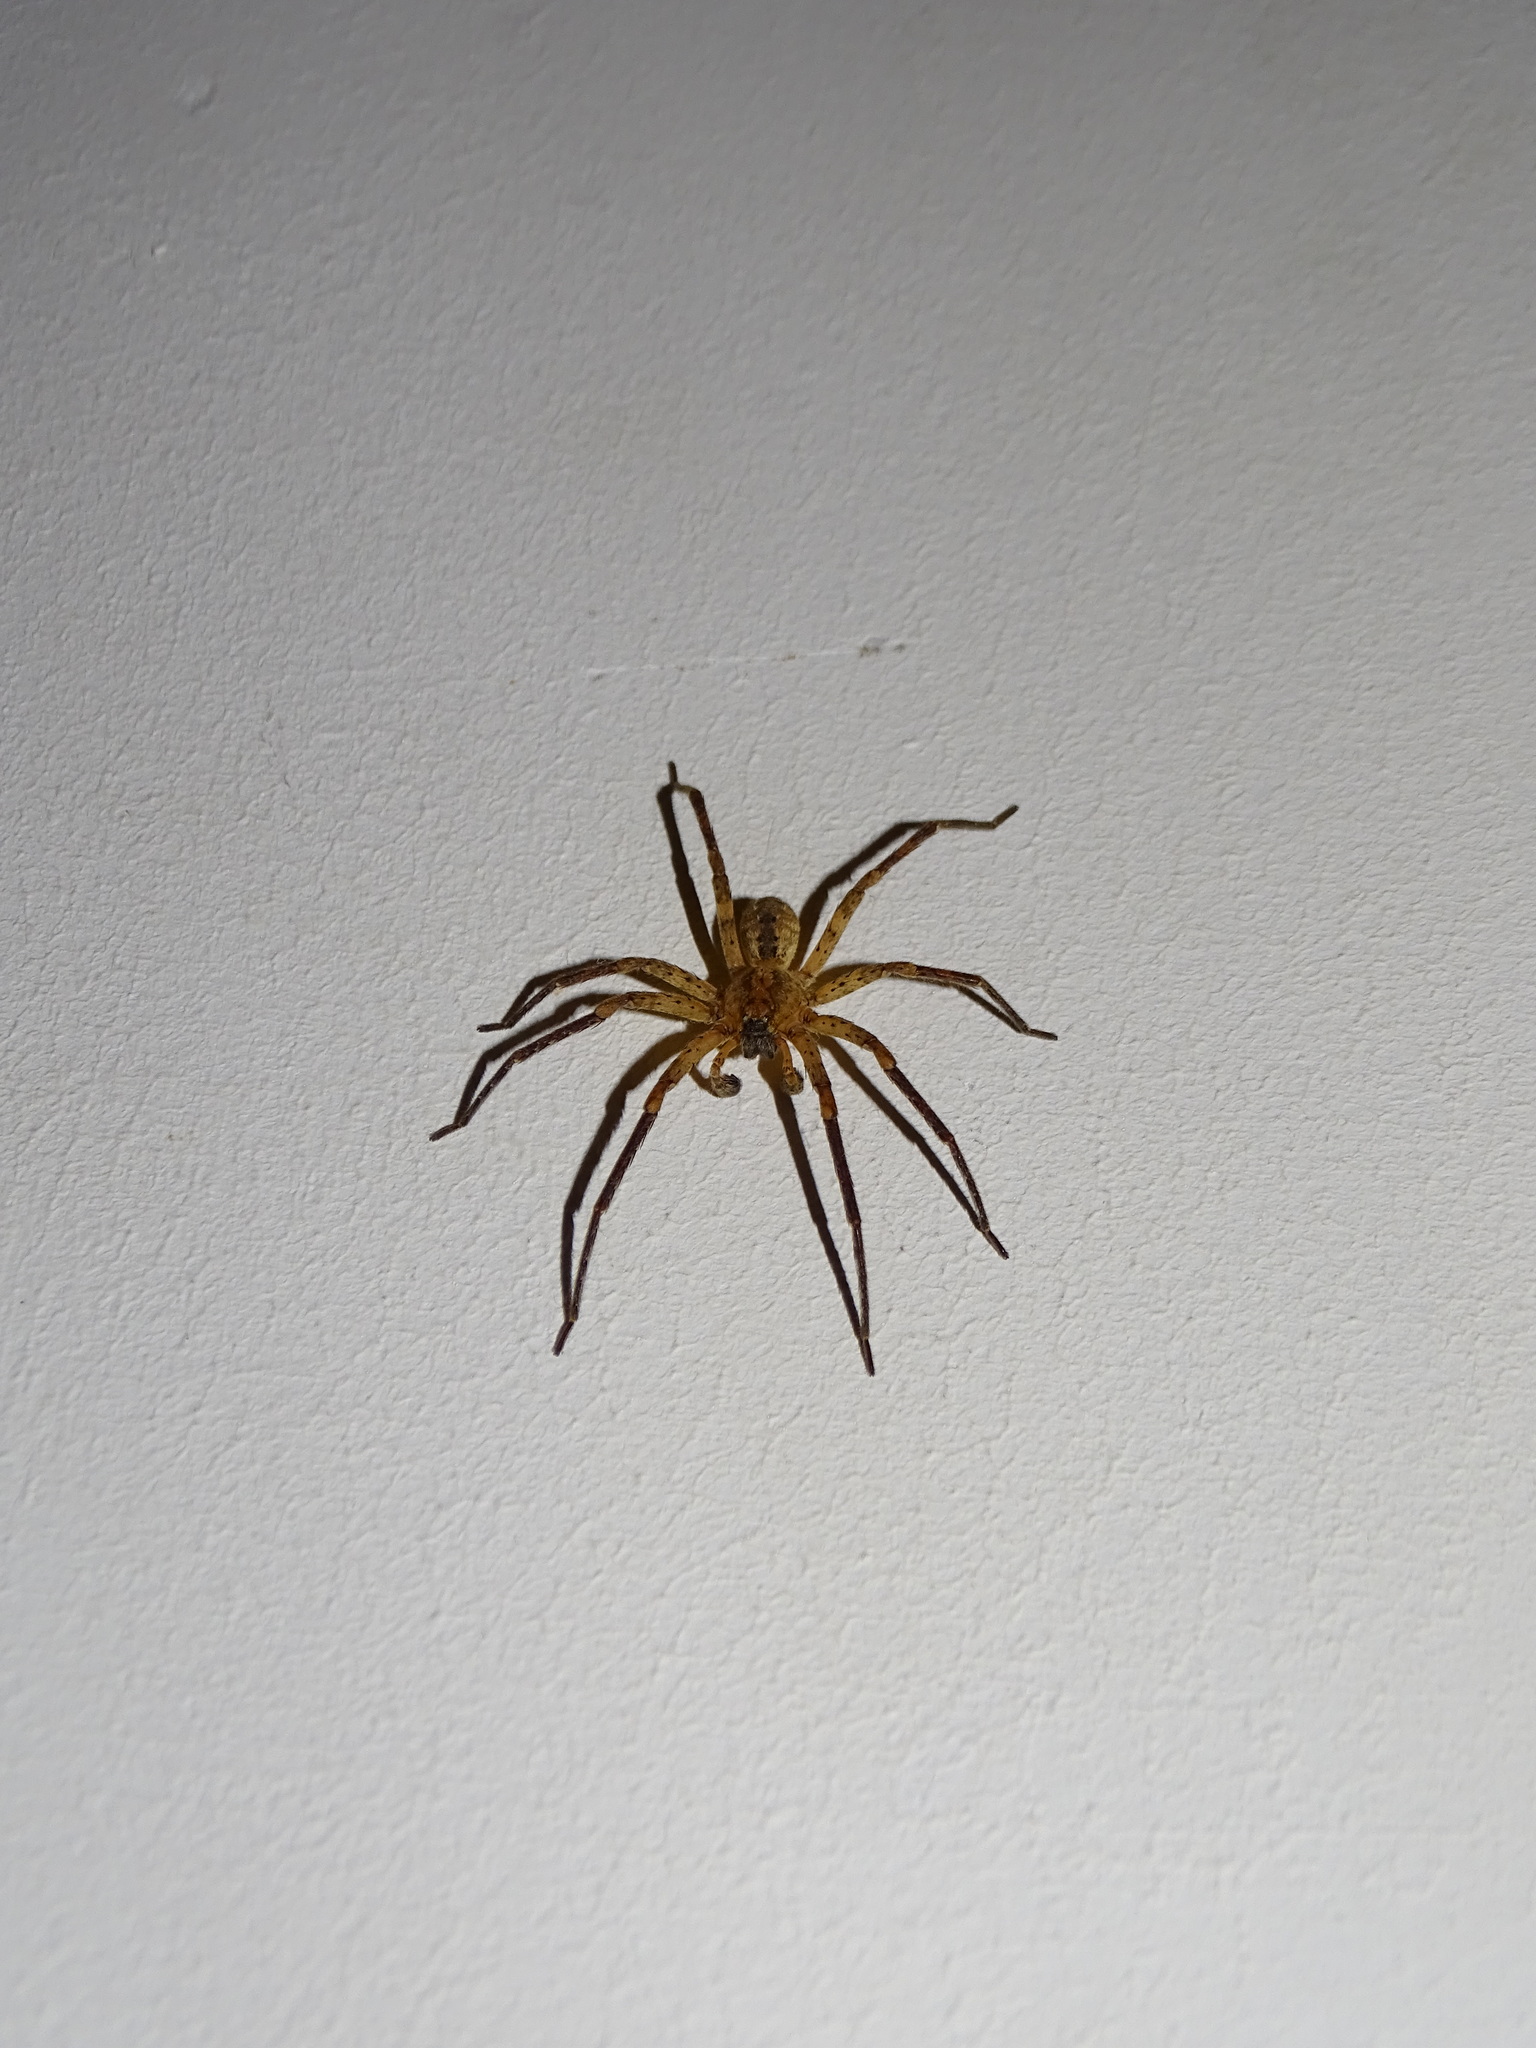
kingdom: Animalia
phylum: Arthropoda
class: Arachnida
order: Araneae
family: Zoropsidae
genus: Zoropsis
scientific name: Zoropsis spinimana
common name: Zoropsid spider
